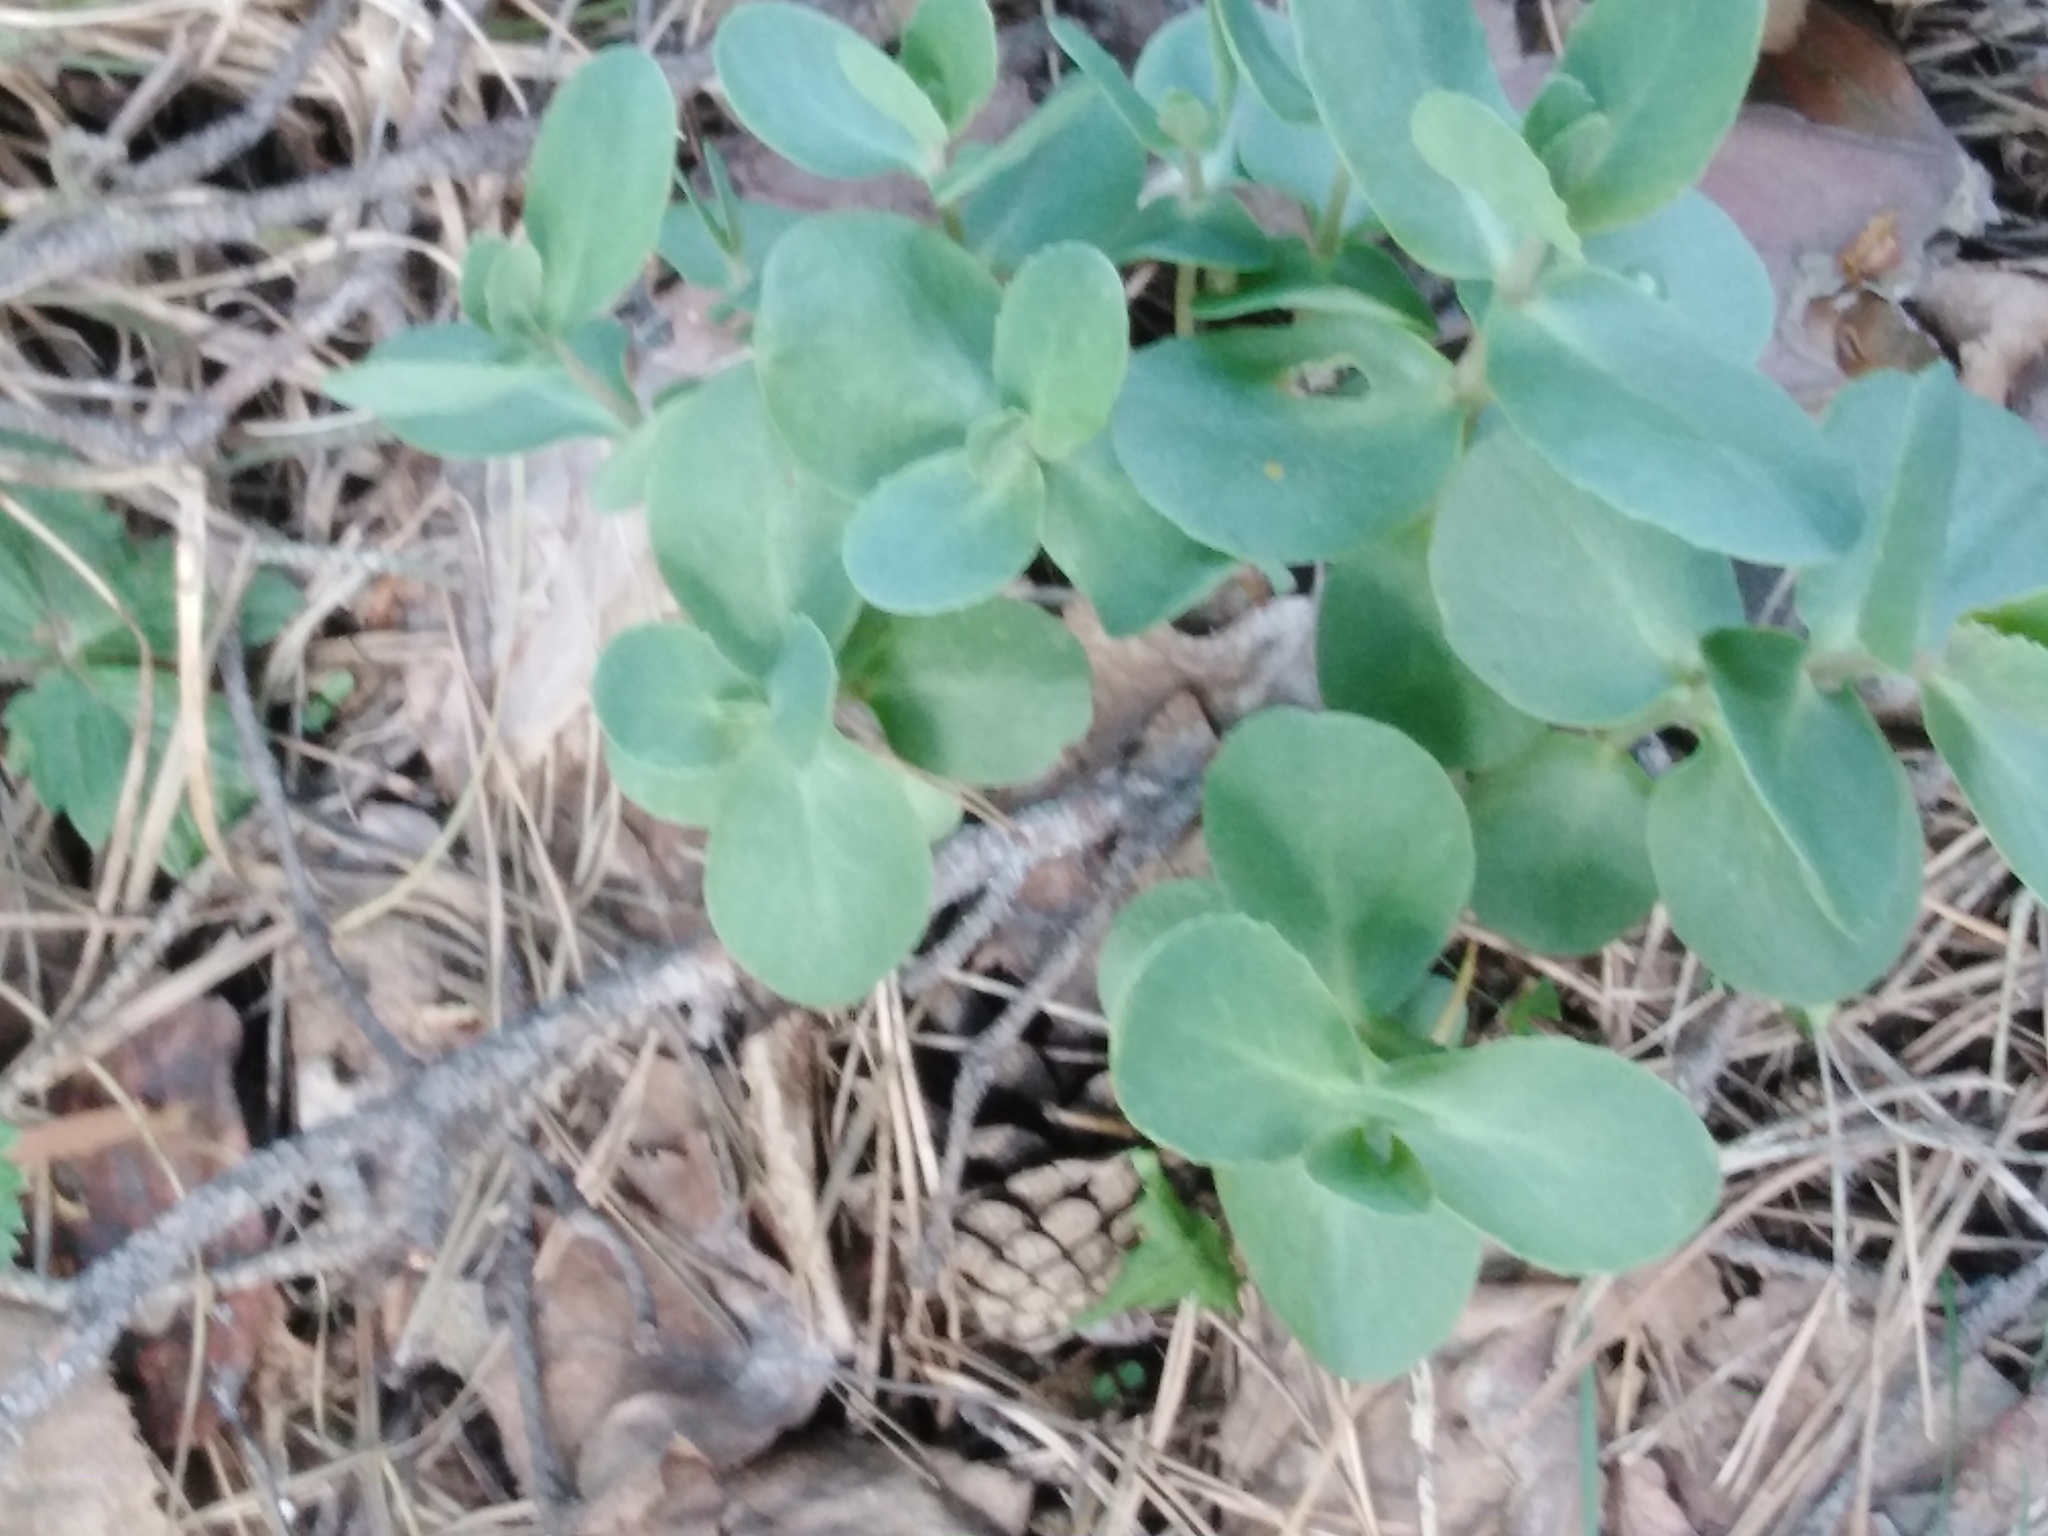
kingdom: Plantae
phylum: Tracheophyta
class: Magnoliopsida
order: Saxifragales
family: Crassulaceae
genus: Hylotelephium
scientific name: Hylotelephium maximum
